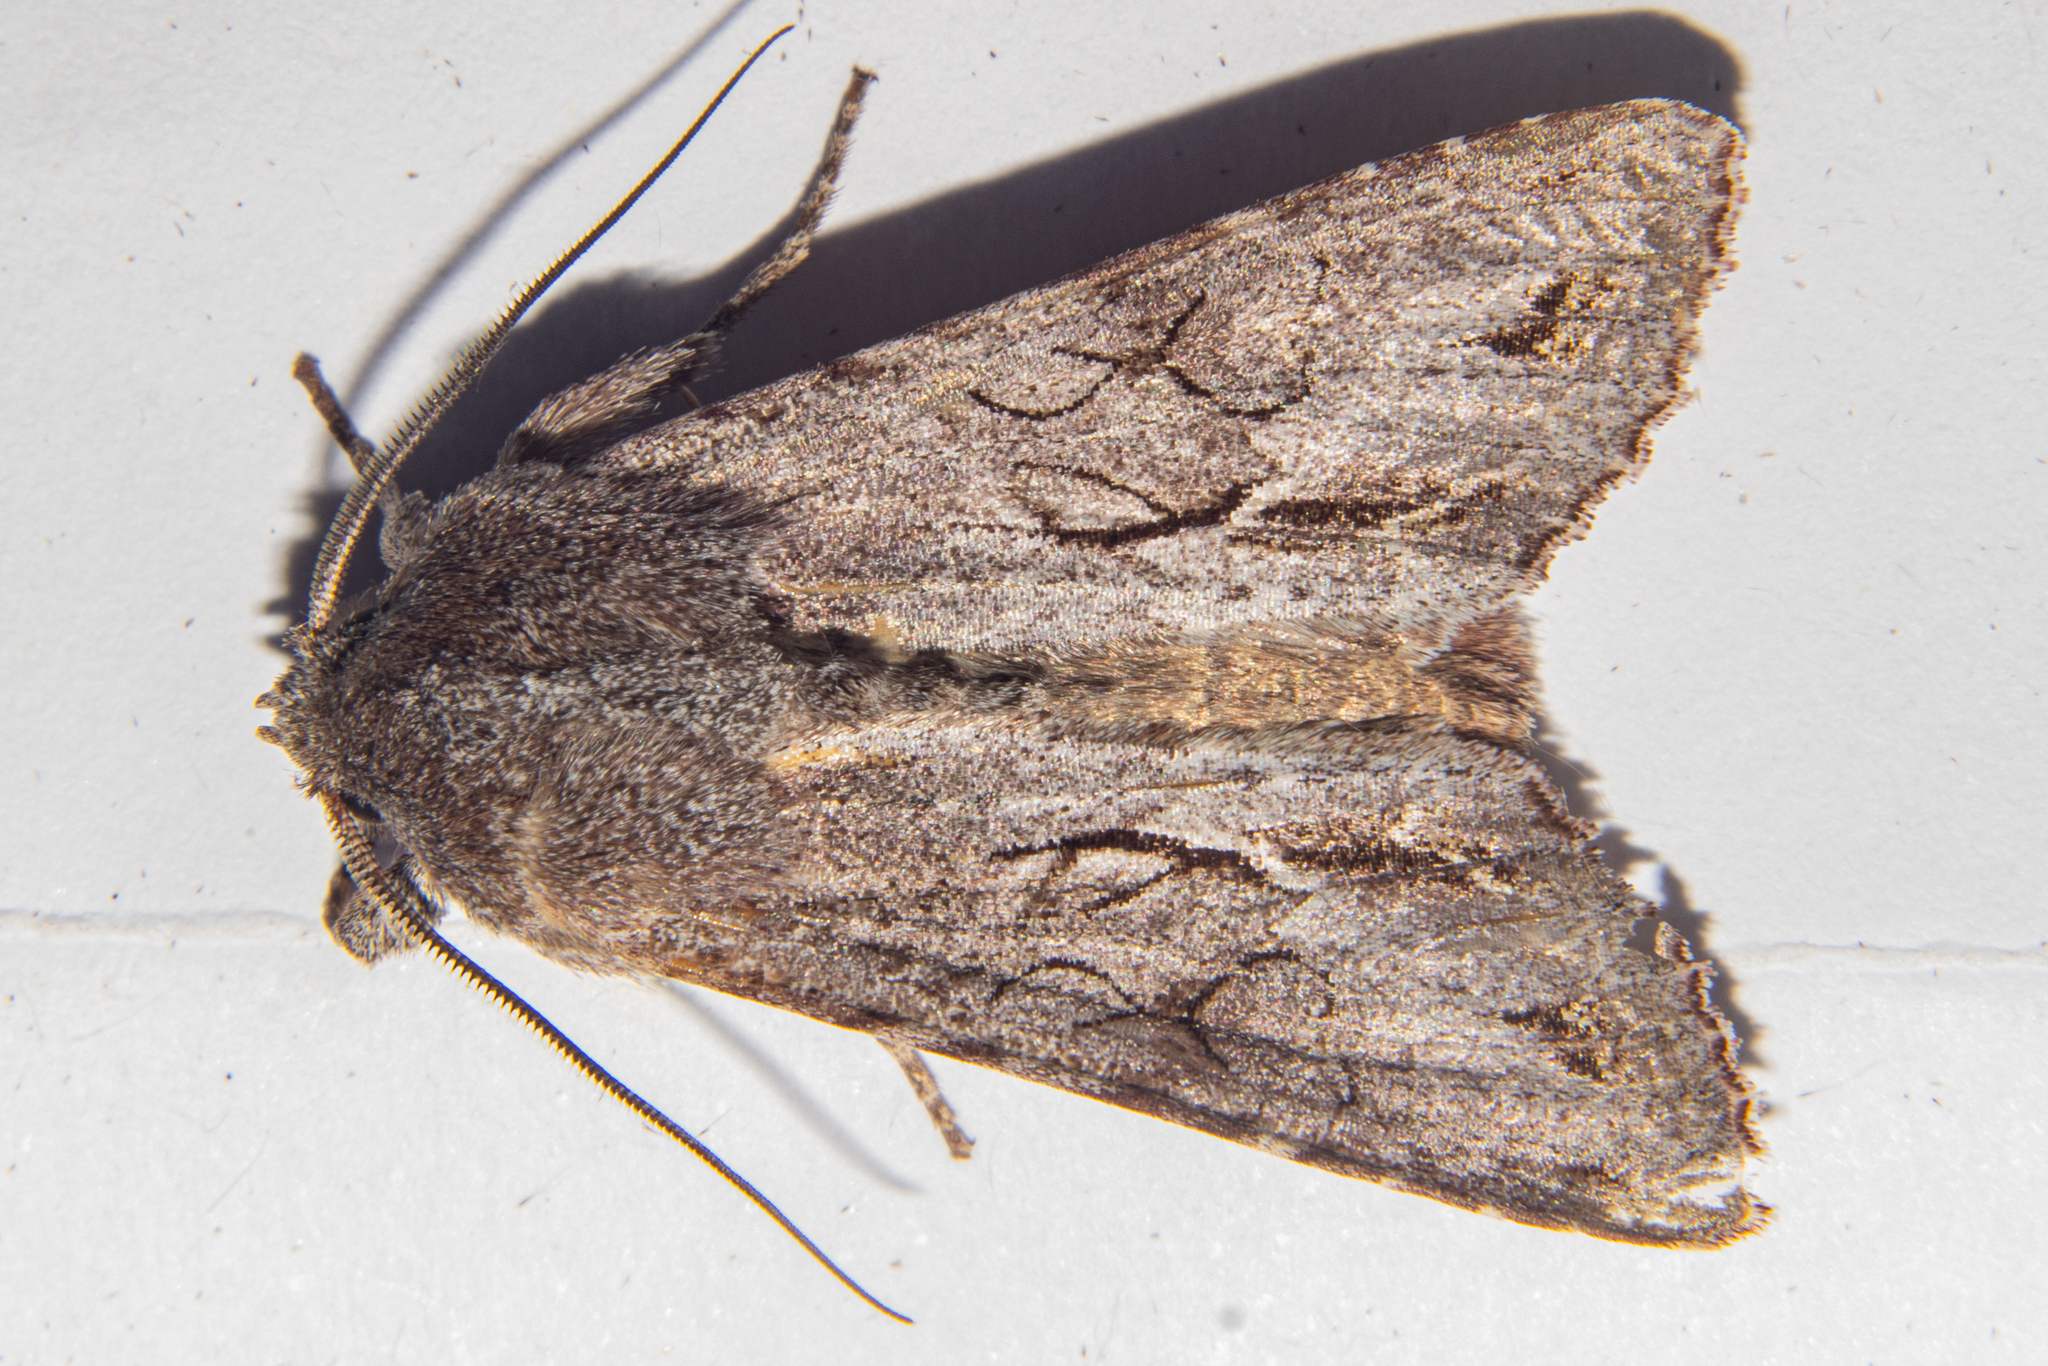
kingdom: Animalia
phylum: Arthropoda
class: Insecta
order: Lepidoptera
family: Noctuidae
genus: Ichneutica
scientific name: Ichneutica
